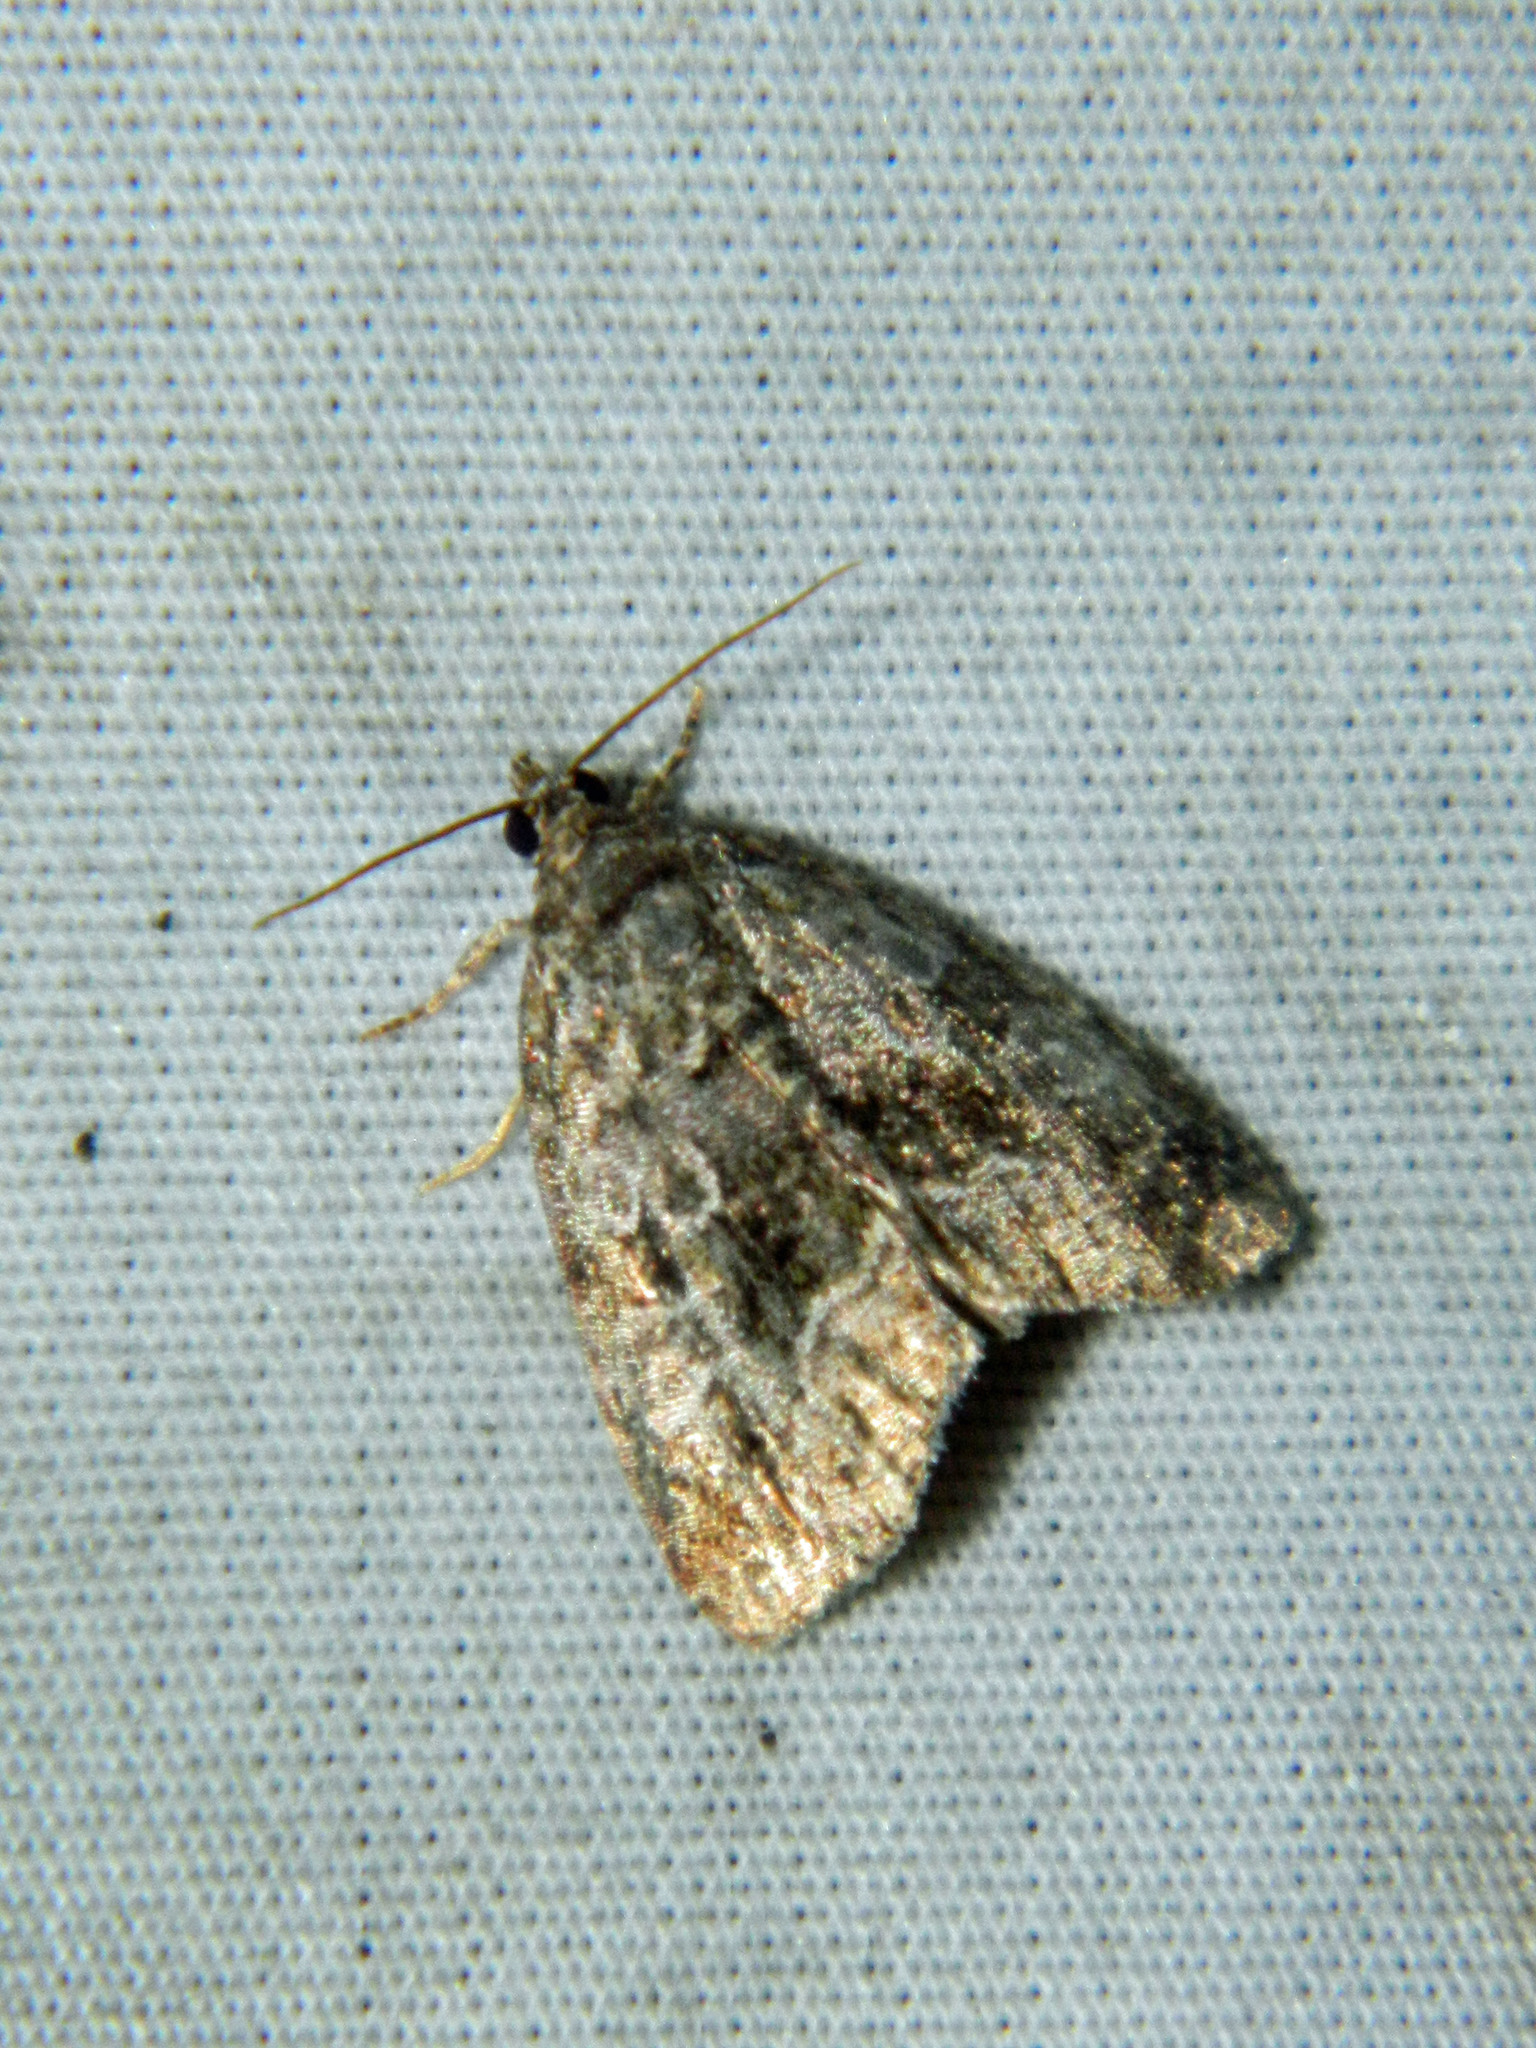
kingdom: Animalia
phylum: Arthropoda
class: Insecta
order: Lepidoptera
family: Noctuidae
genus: Protodeltote
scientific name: Protodeltote muscosula
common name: Large mossy glyph
